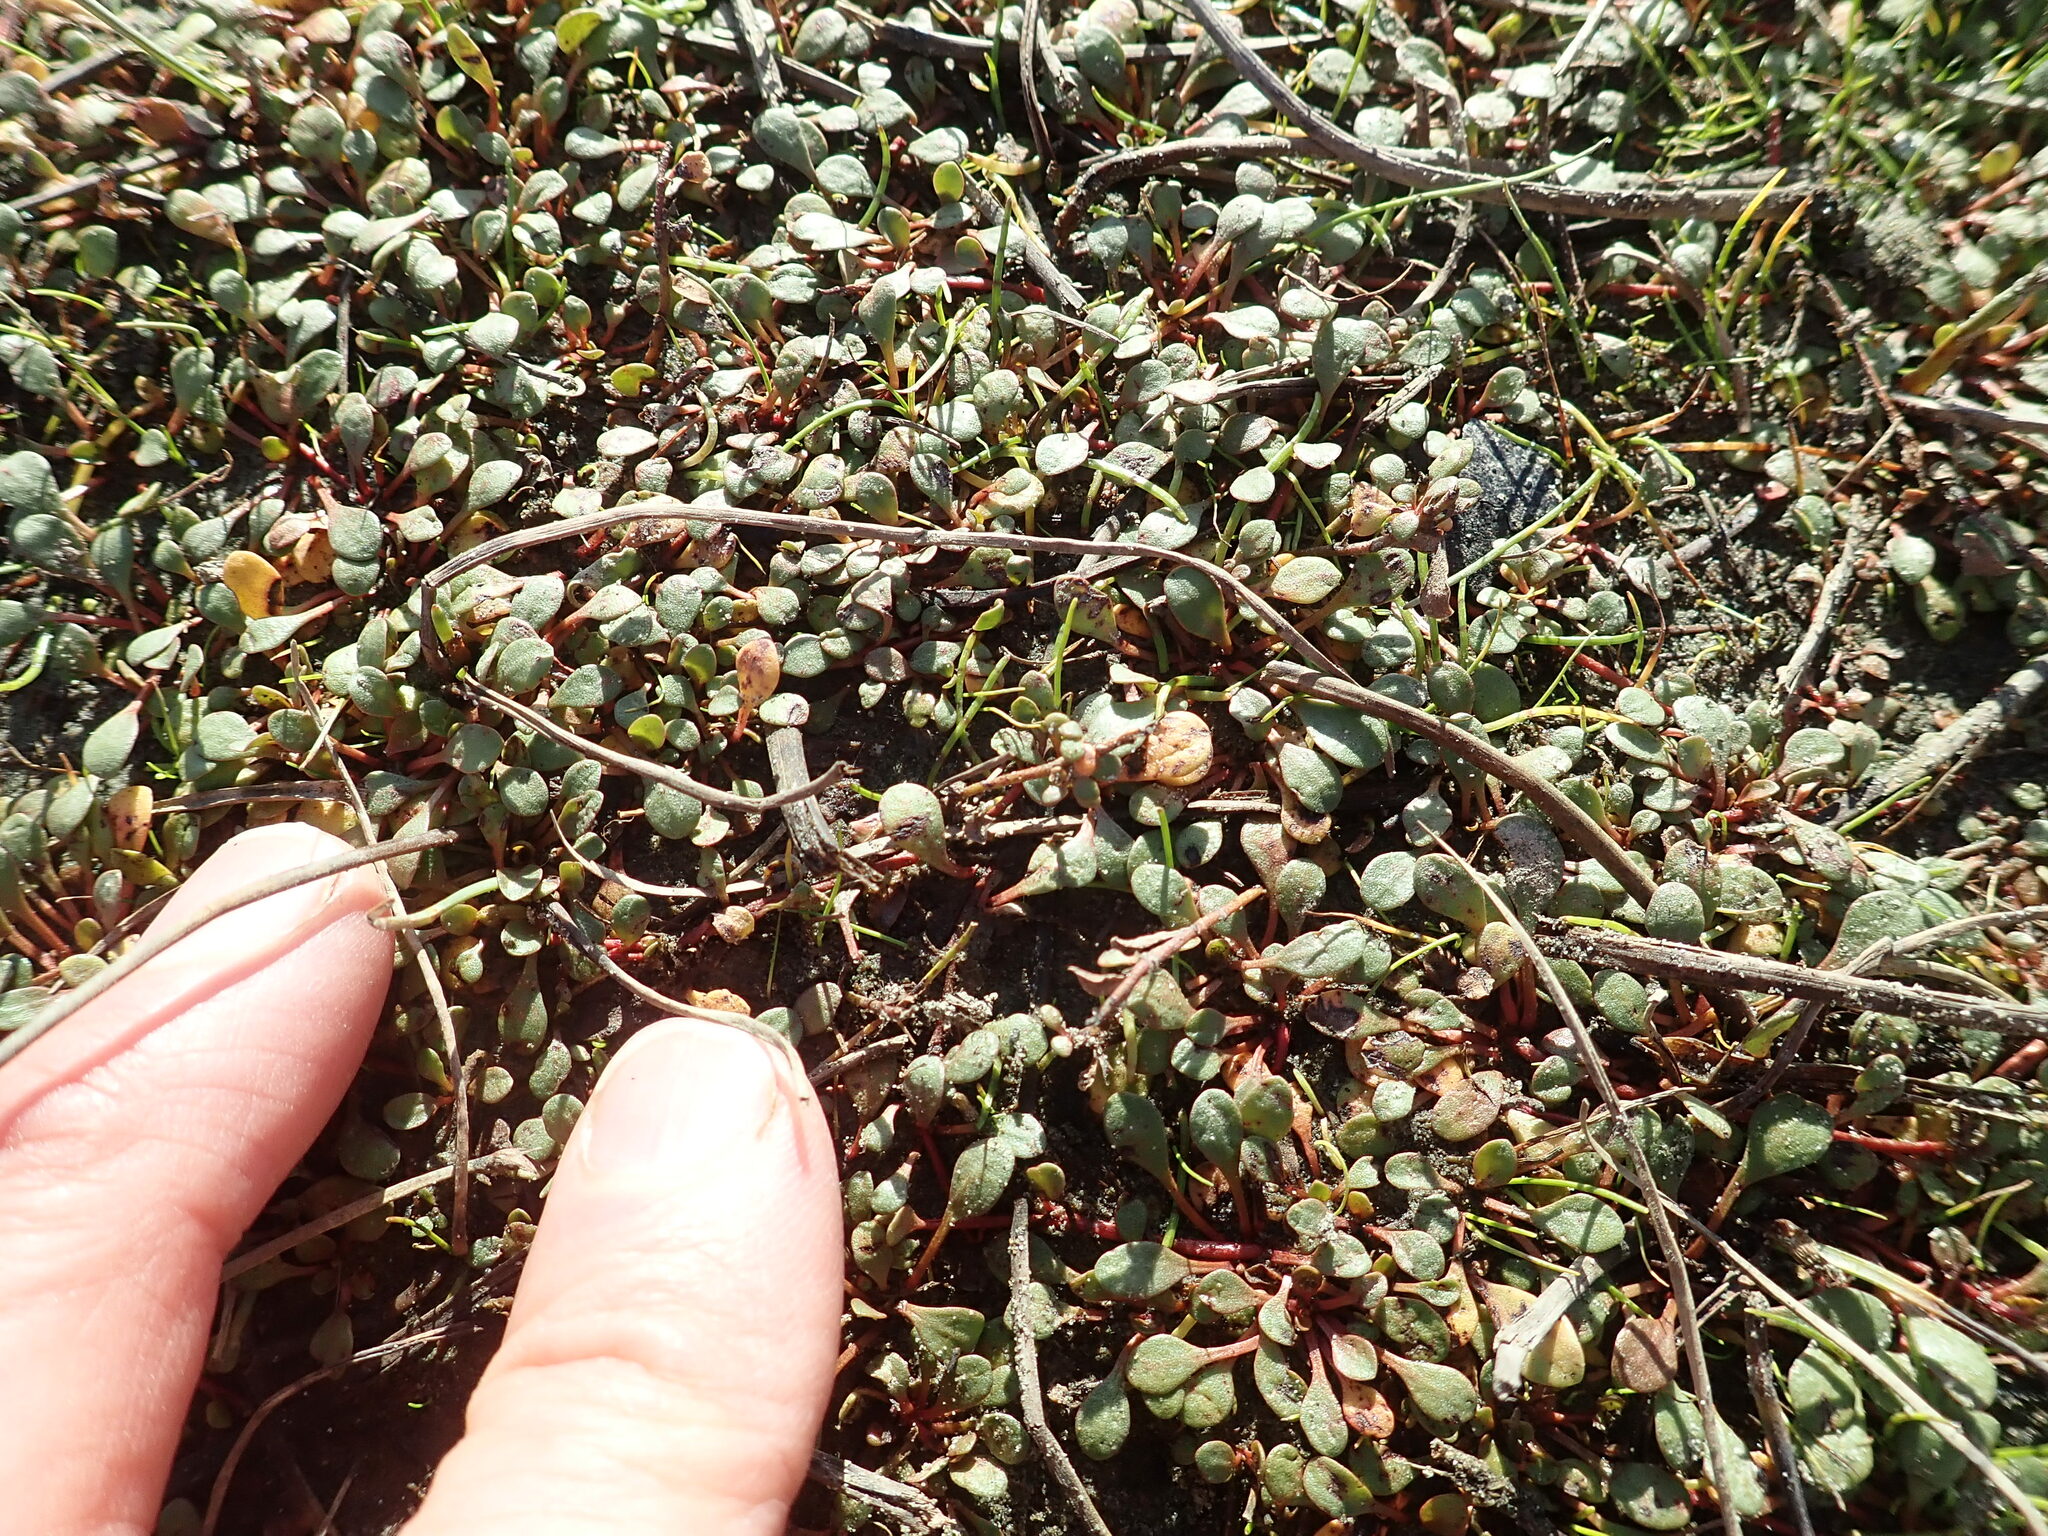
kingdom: Plantae
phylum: Tracheophyta
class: Magnoliopsida
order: Ericales
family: Primulaceae
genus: Samolus
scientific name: Samolus repens
